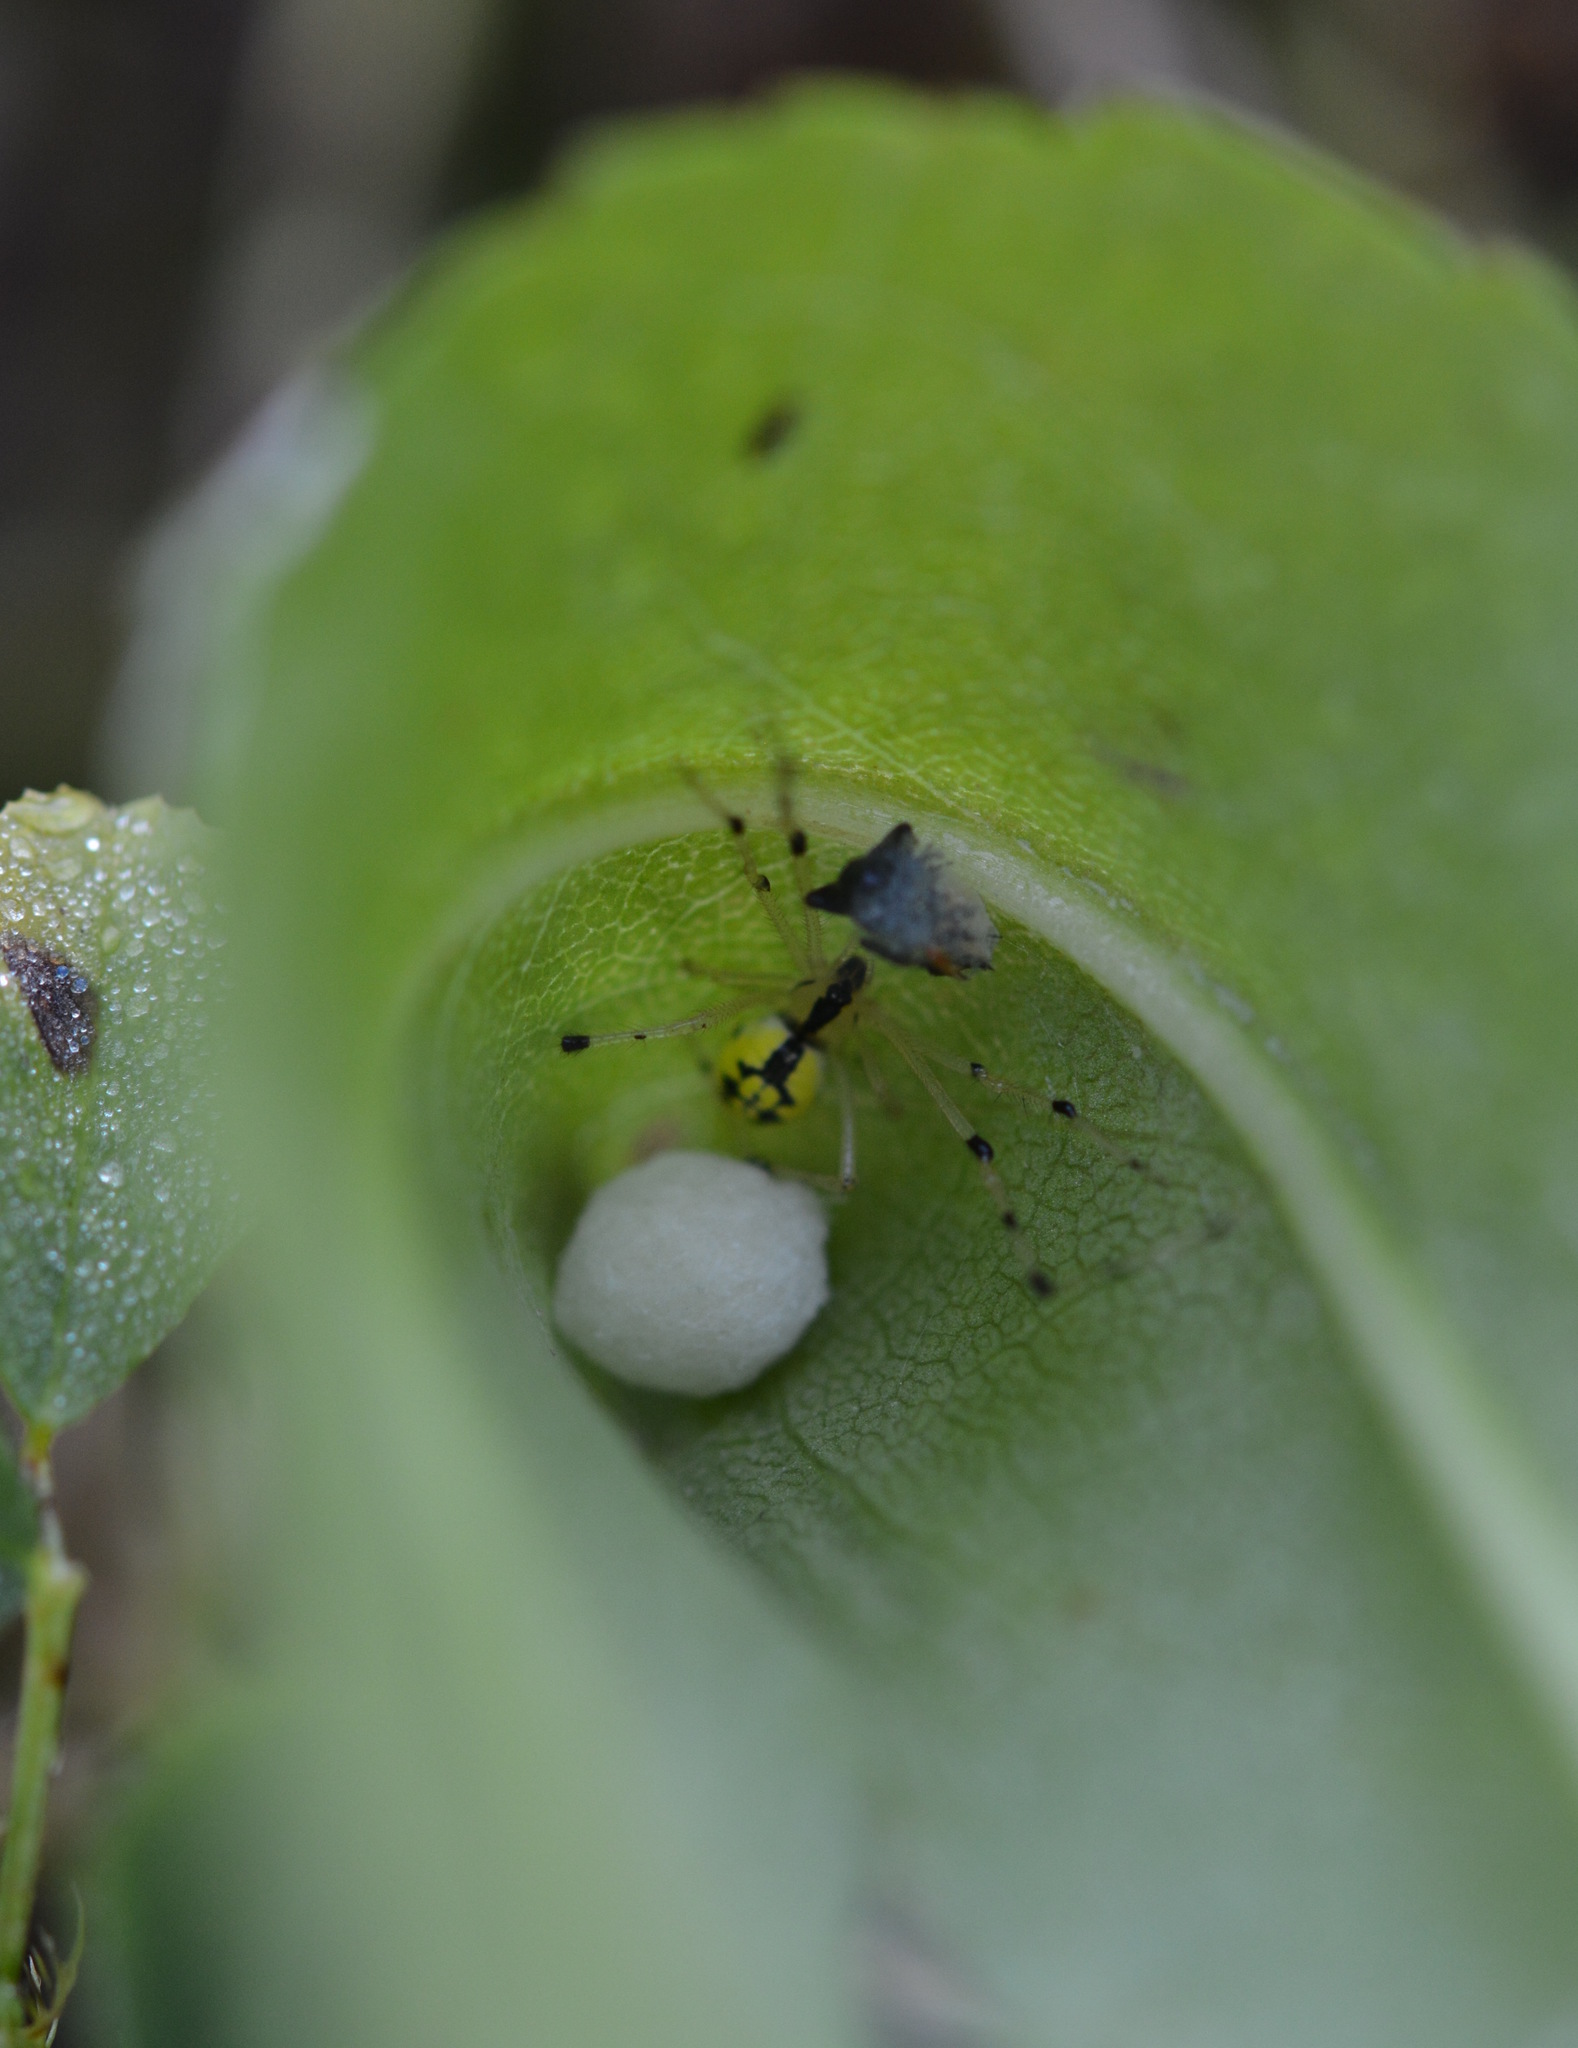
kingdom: Animalia
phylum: Arthropoda
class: Arachnida
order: Araneae
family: Theridiidae
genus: Phylloneta
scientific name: Phylloneta pictipes
